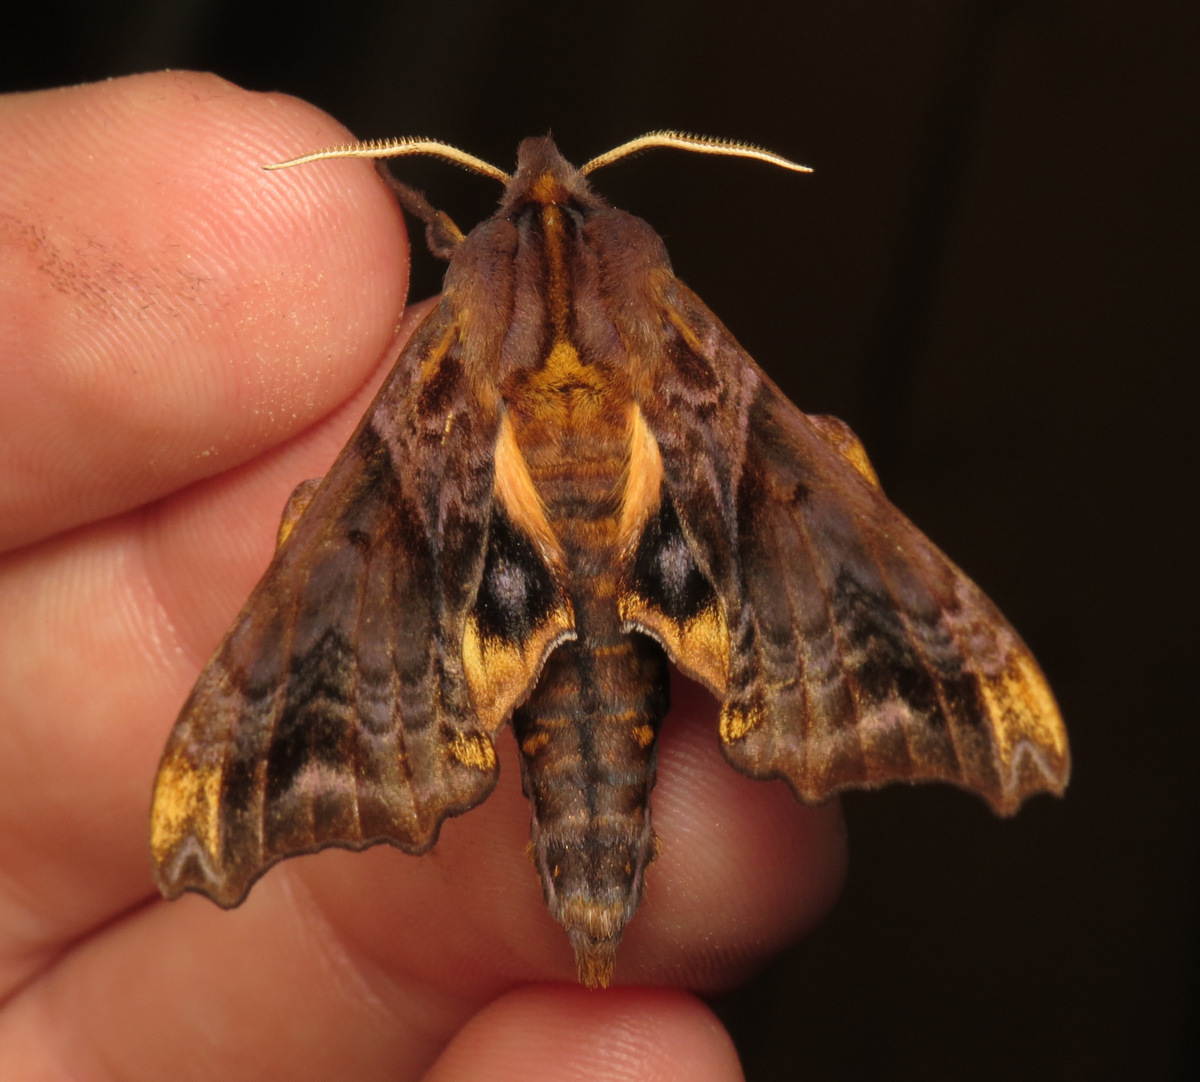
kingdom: Animalia
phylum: Arthropoda
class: Insecta
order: Lepidoptera
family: Sphingidae
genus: Paonias
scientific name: Paonias myops
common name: Small-eyed sphinx
